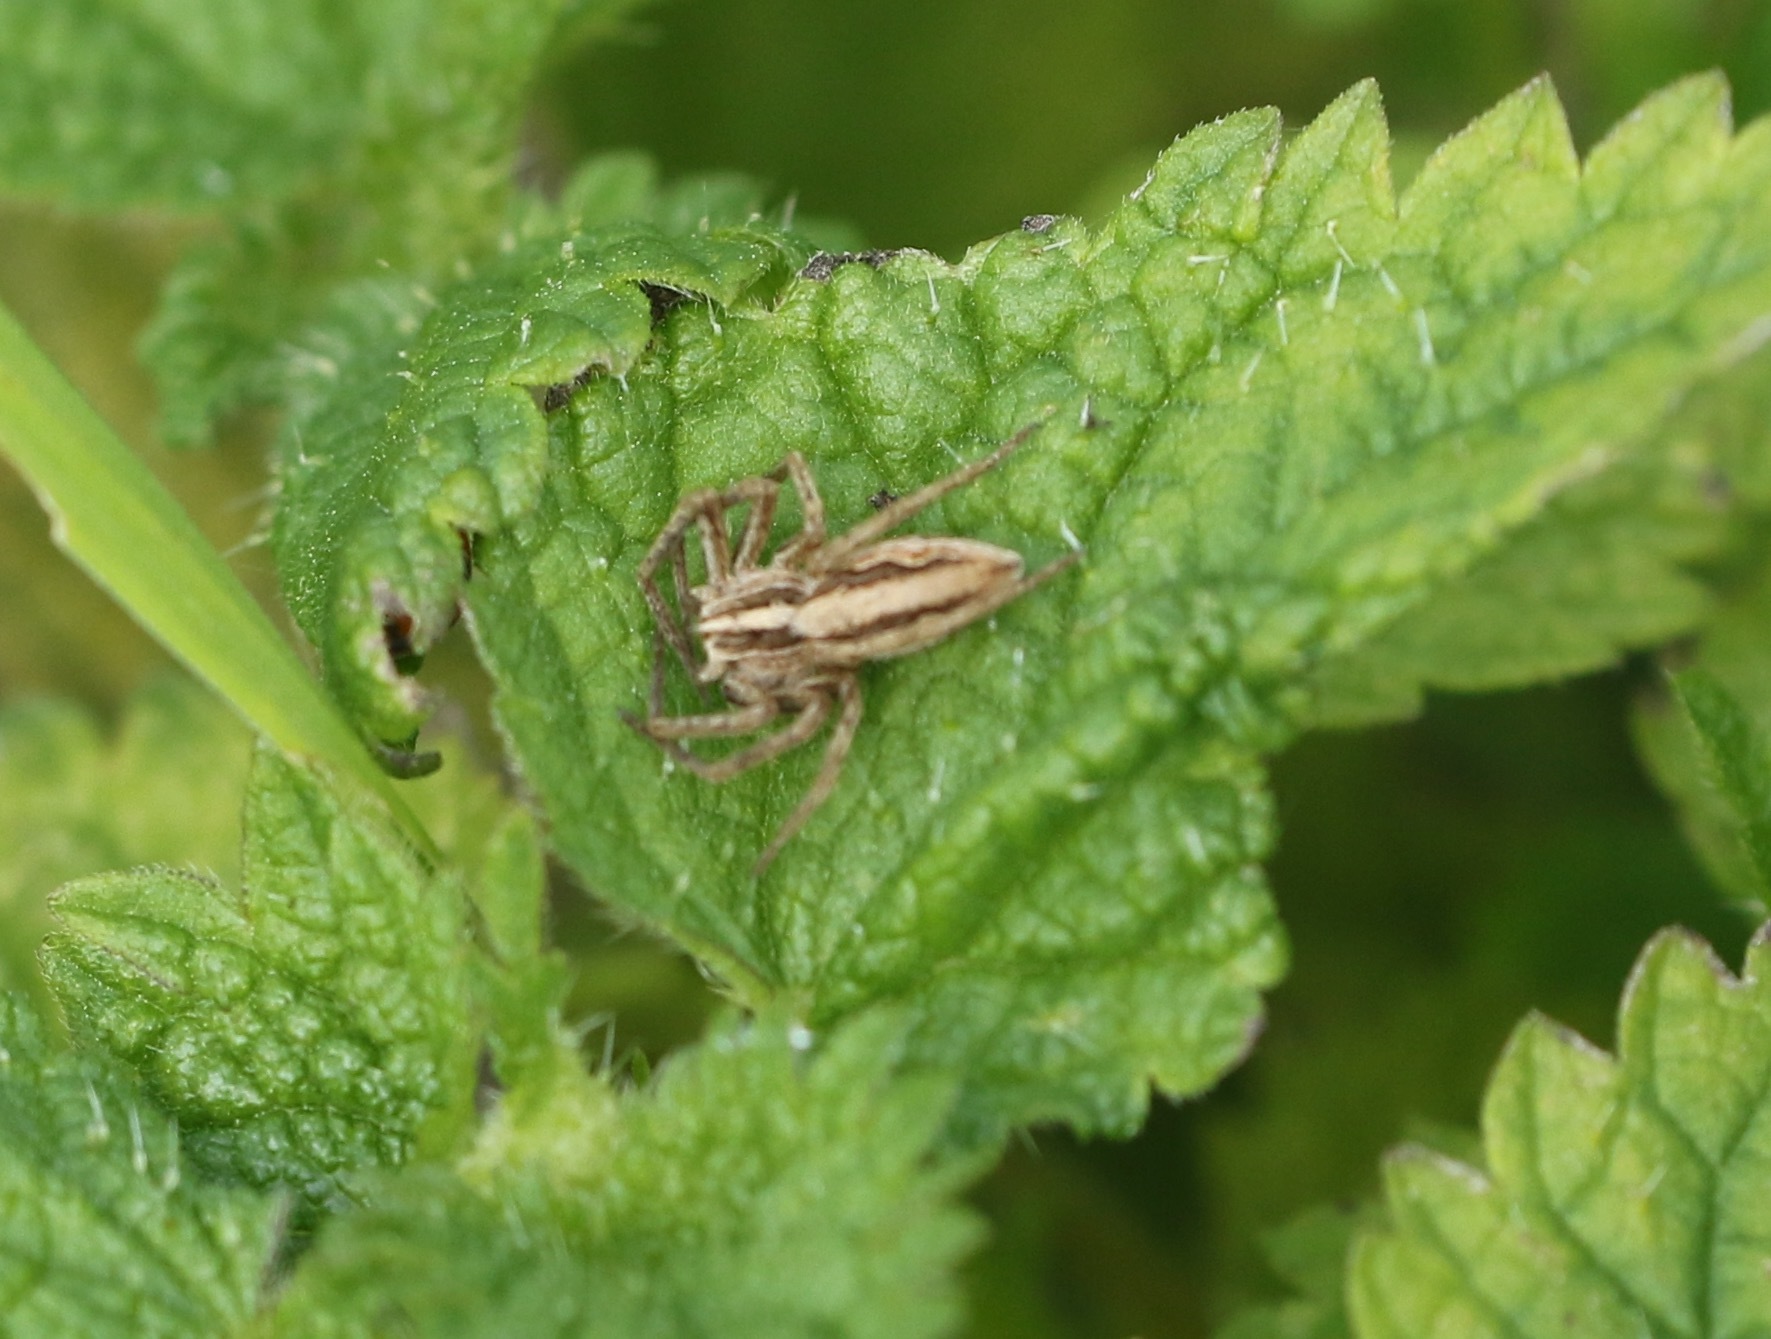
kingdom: Animalia
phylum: Arthropoda
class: Arachnida
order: Araneae
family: Pisauridae
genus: Pisaura
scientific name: Pisaura mirabilis
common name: Tent spider
